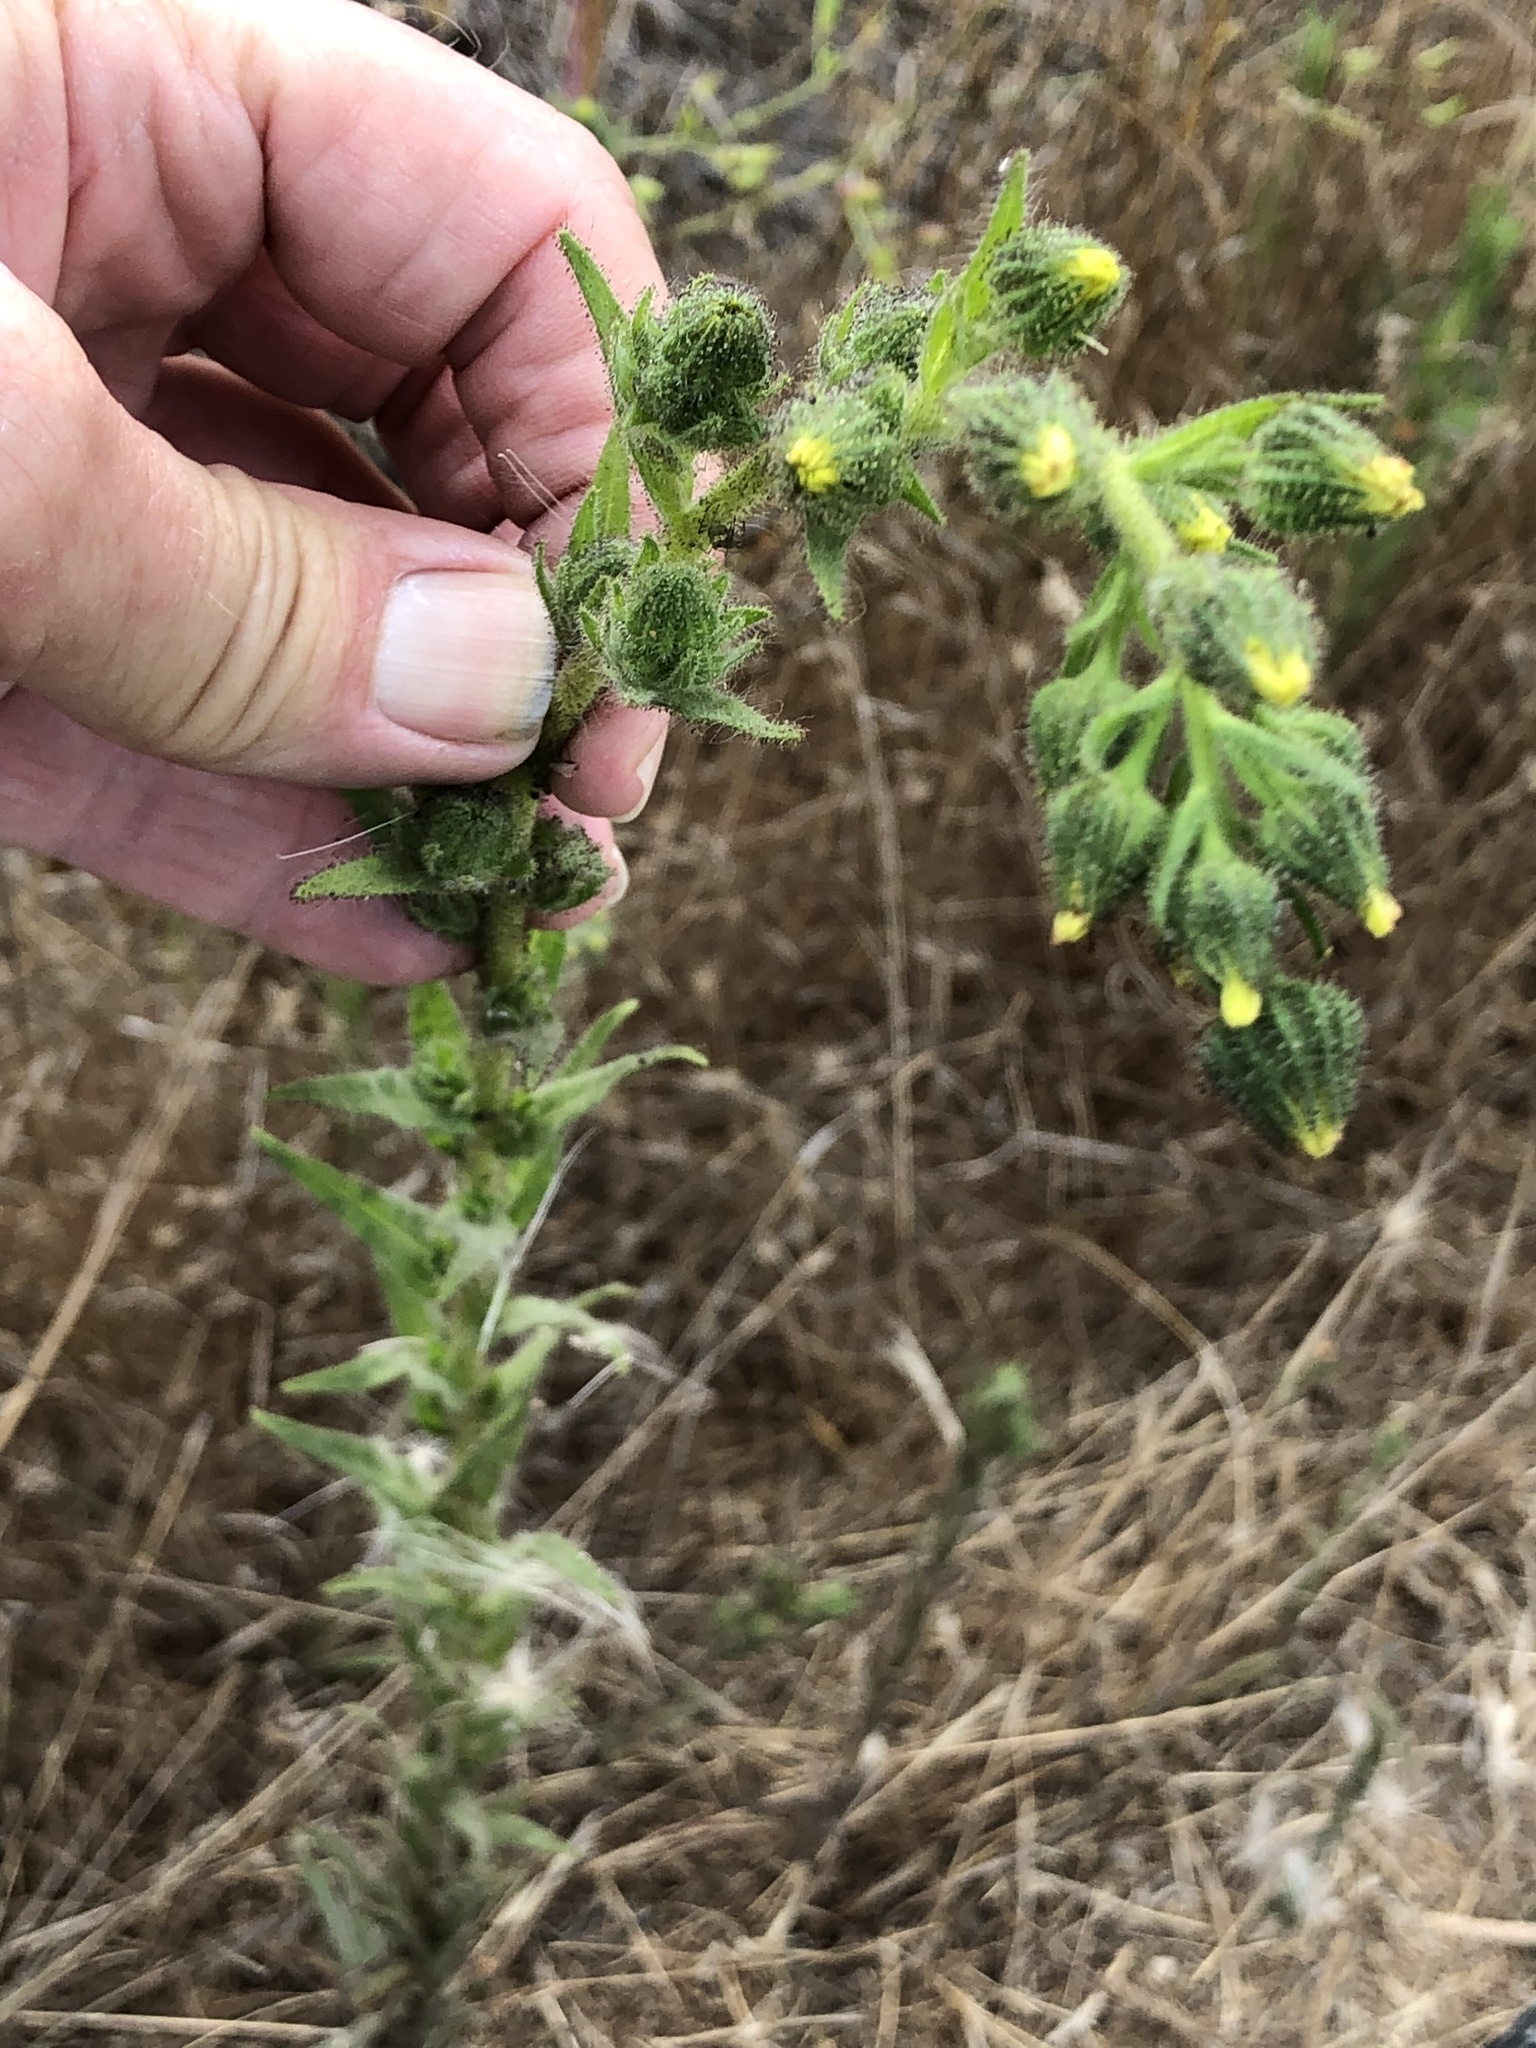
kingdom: Plantae
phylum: Tracheophyta
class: Magnoliopsida
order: Asterales
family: Asteraceae
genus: Madia
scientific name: Madia sativa
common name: Coast tarweed
